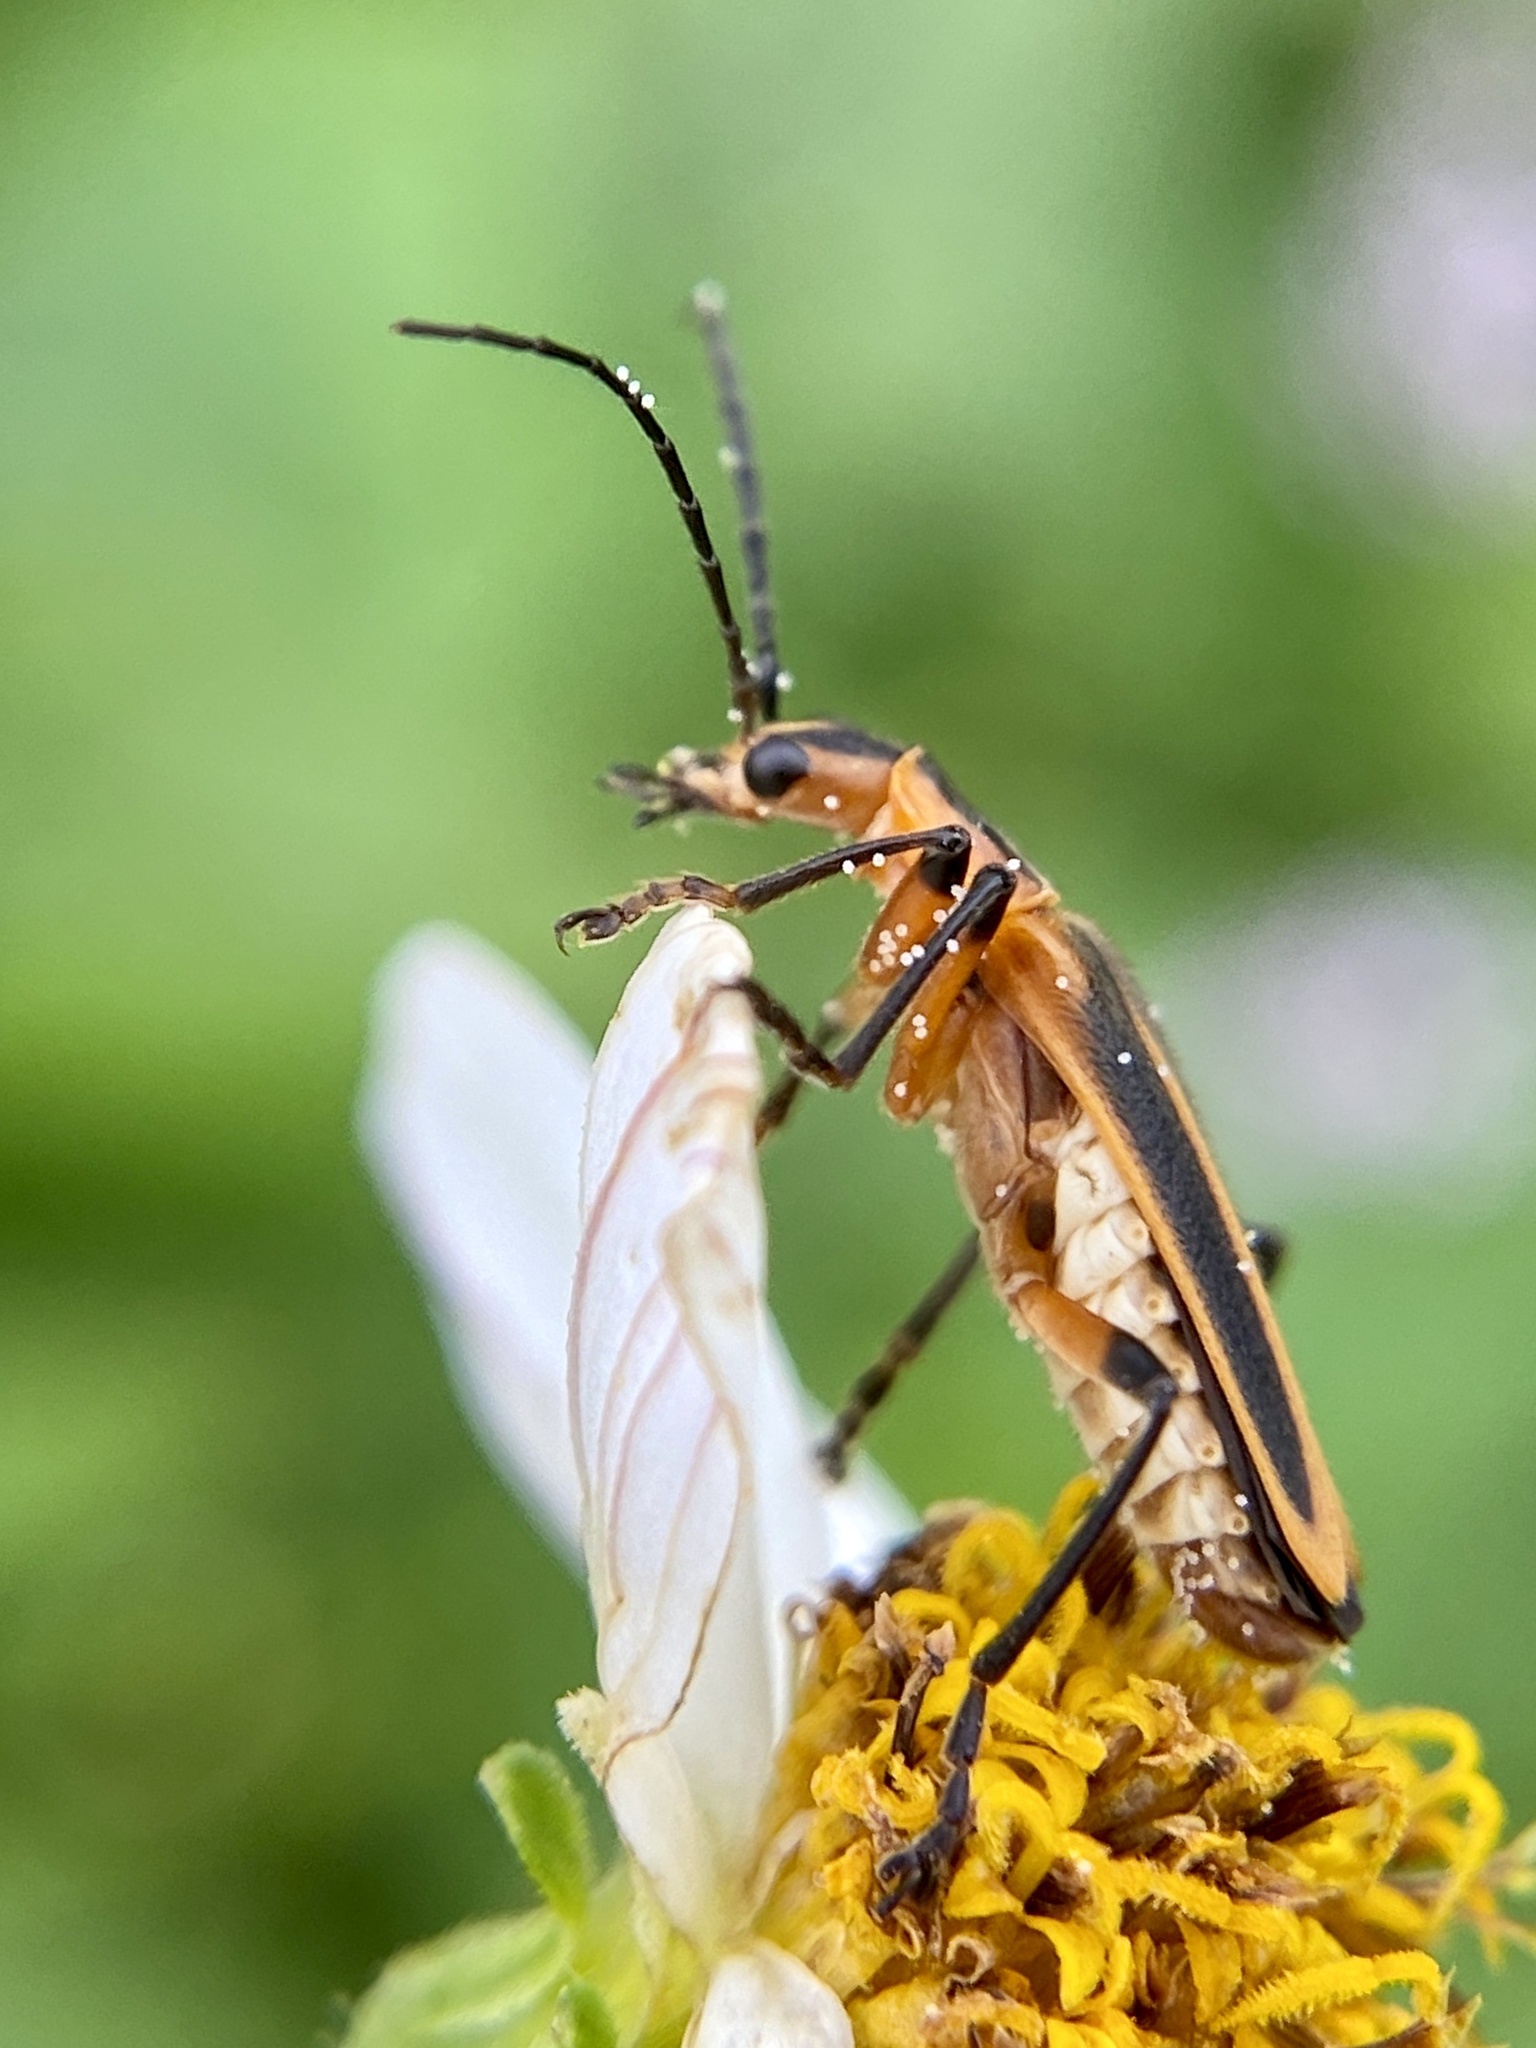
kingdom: Animalia
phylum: Arthropoda
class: Insecta
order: Coleoptera
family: Cantharidae
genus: Chauliognathus
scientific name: Chauliognathus marginatus
